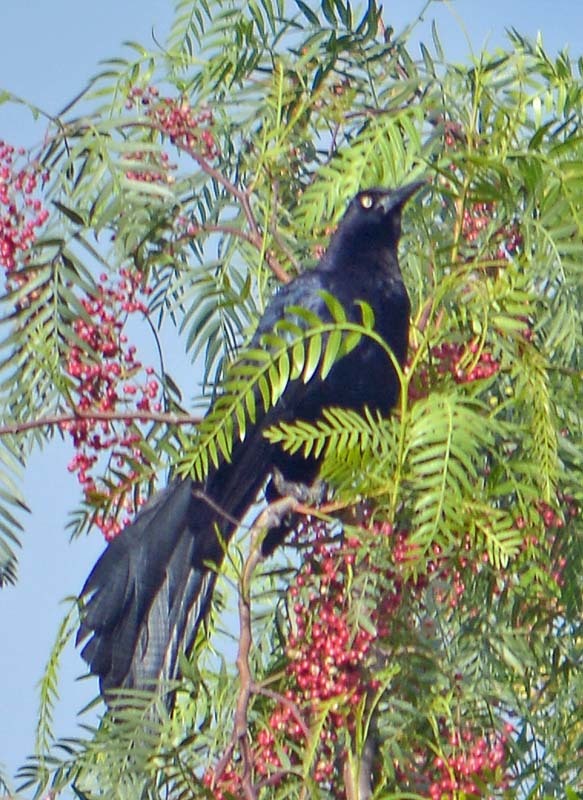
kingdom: Animalia
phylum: Chordata
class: Aves
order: Passeriformes
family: Icteridae
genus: Quiscalus
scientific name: Quiscalus mexicanus
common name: Great-tailed grackle
